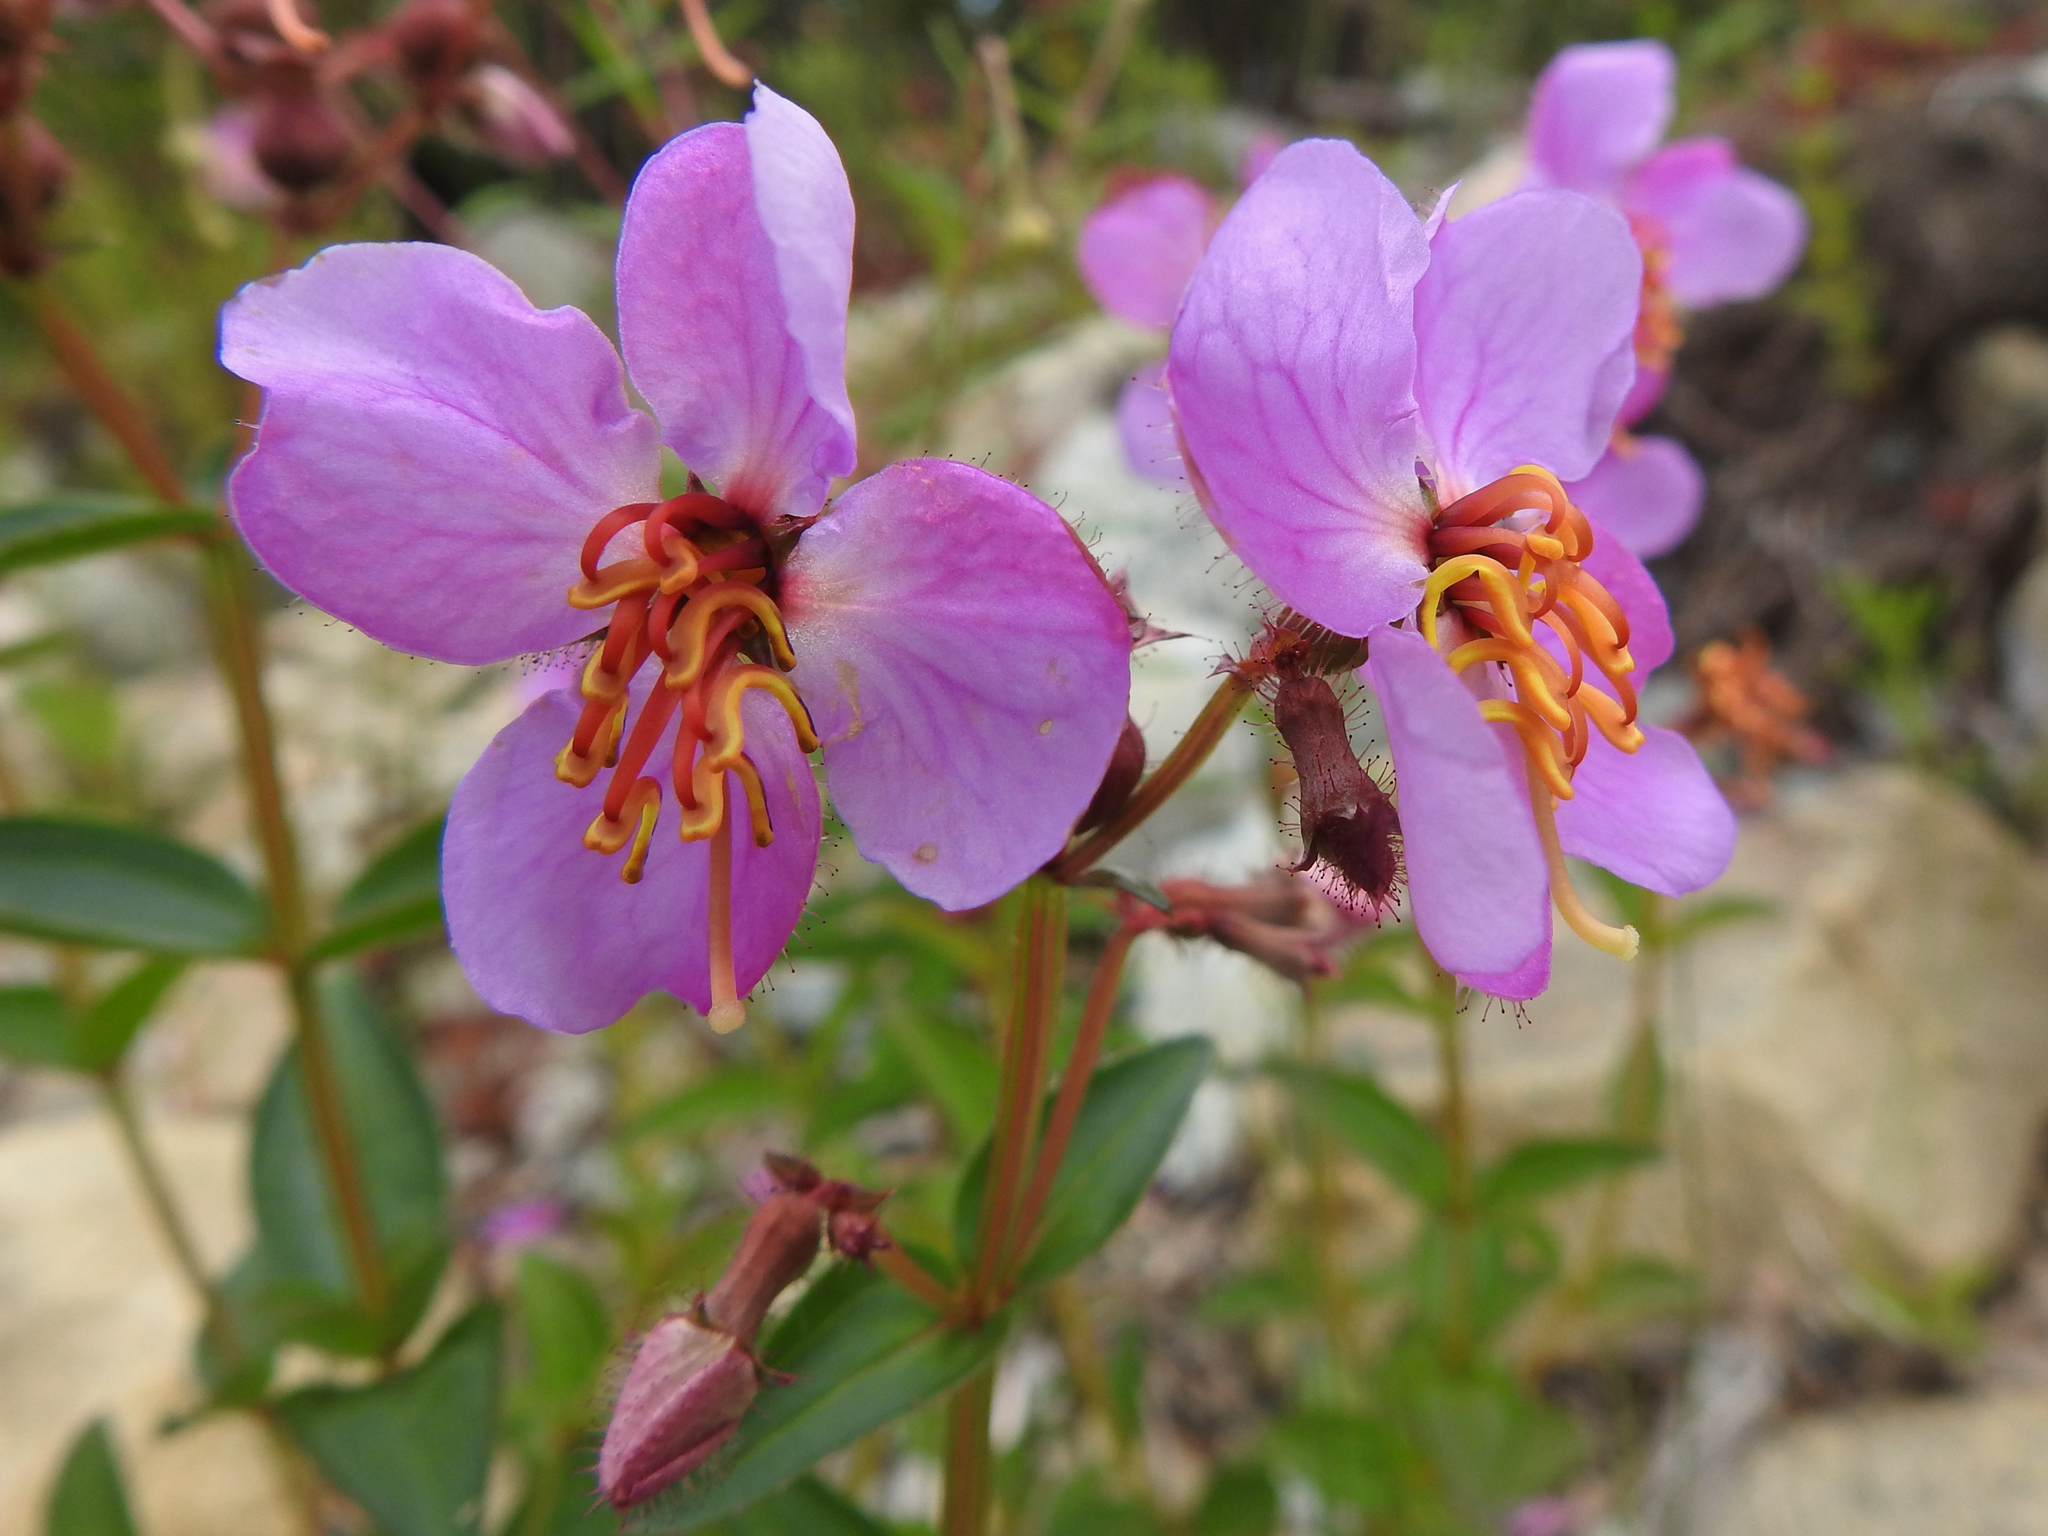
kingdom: Plantae
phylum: Tracheophyta
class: Magnoliopsida
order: Myrtales
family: Melastomataceae
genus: Rhexia
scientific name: Rhexia virginica
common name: Common meadow beauty
